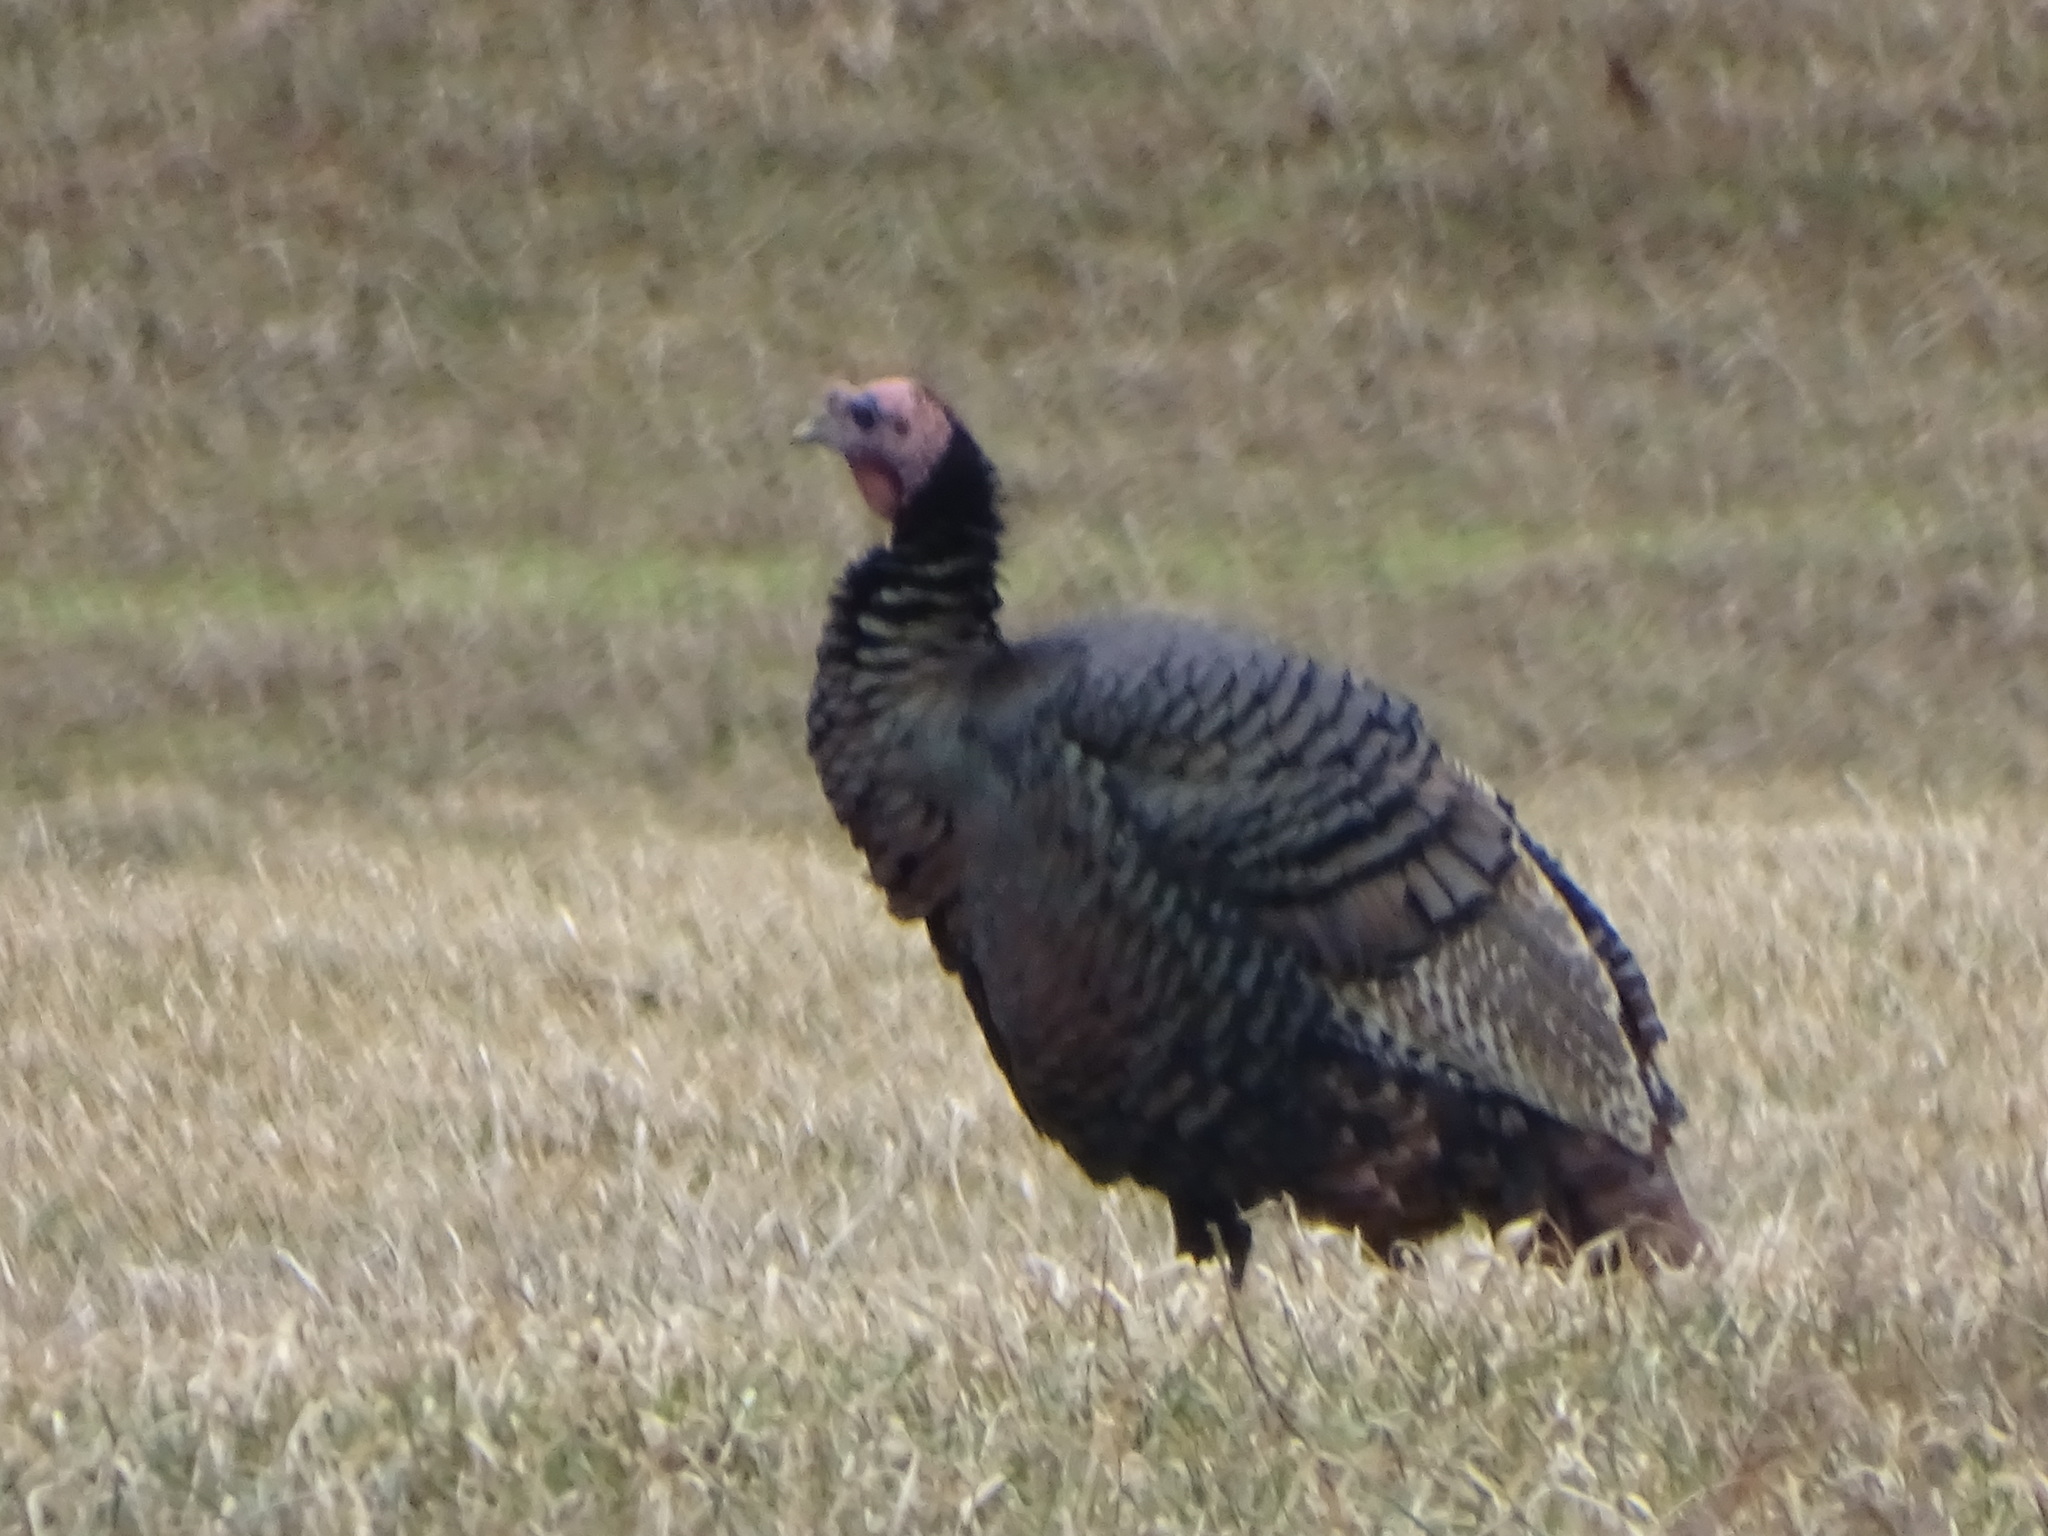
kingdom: Animalia
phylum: Chordata
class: Aves
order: Galliformes
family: Phasianidae
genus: Meleagris
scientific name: Meleagris gallopavo
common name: Wild turkey
